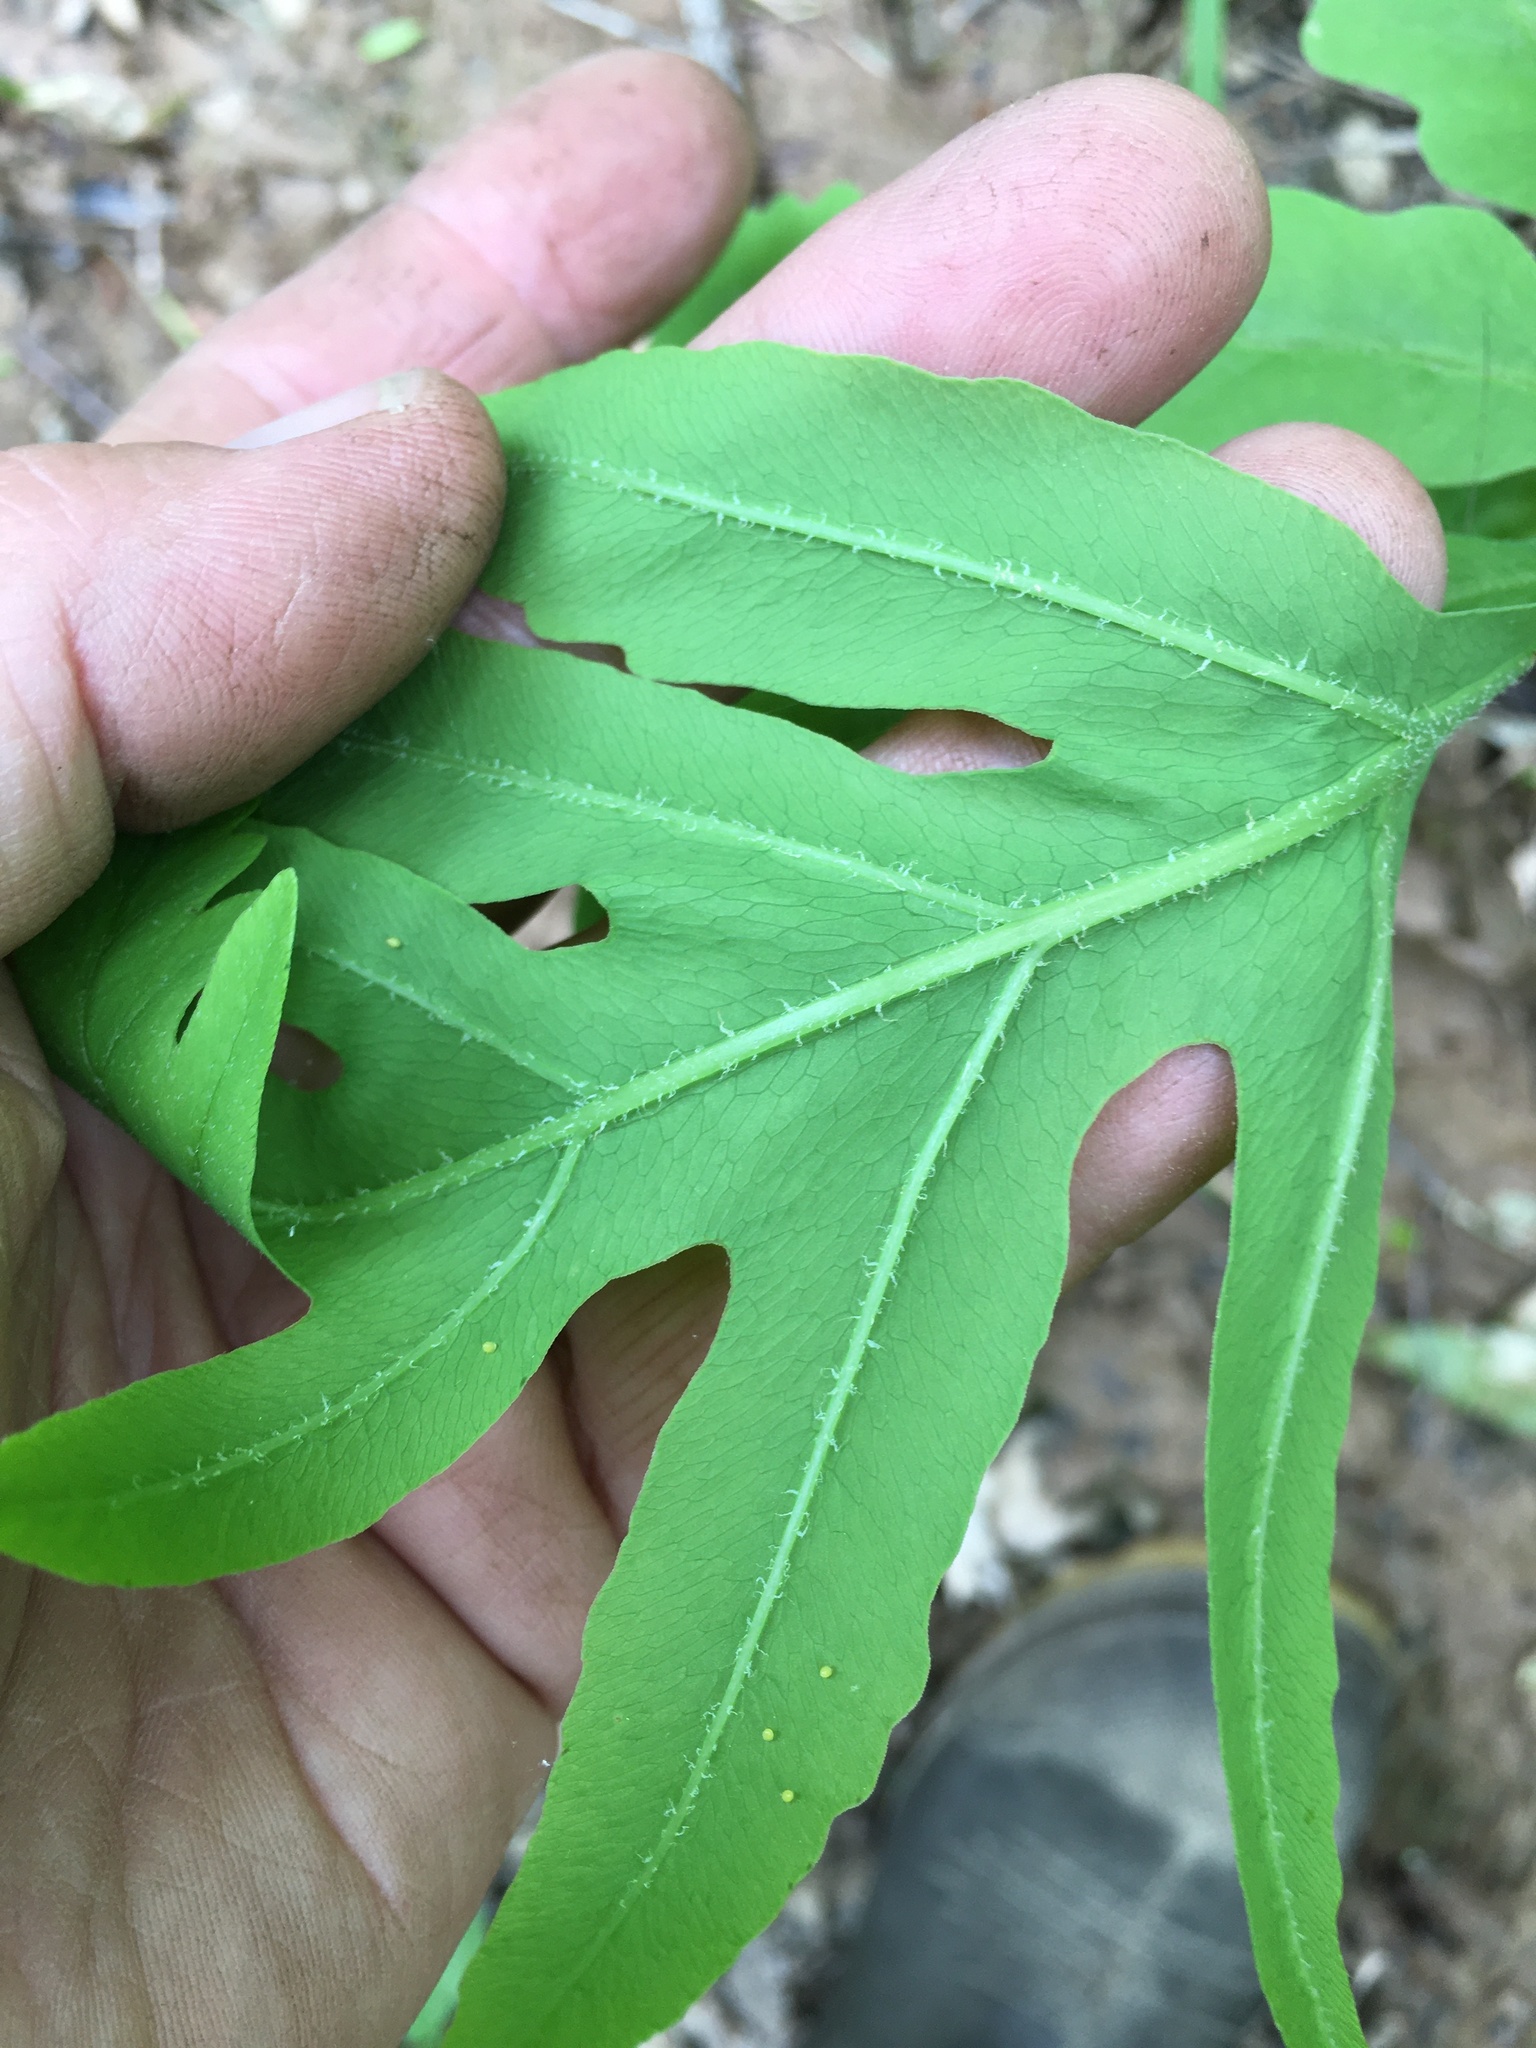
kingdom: Plantae
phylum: Tracheophyta
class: Polypodiopsida
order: Polypodiales
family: Onocleaceae
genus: Onoclea
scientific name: Onoclea sensibilis
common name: Sensitive fern
